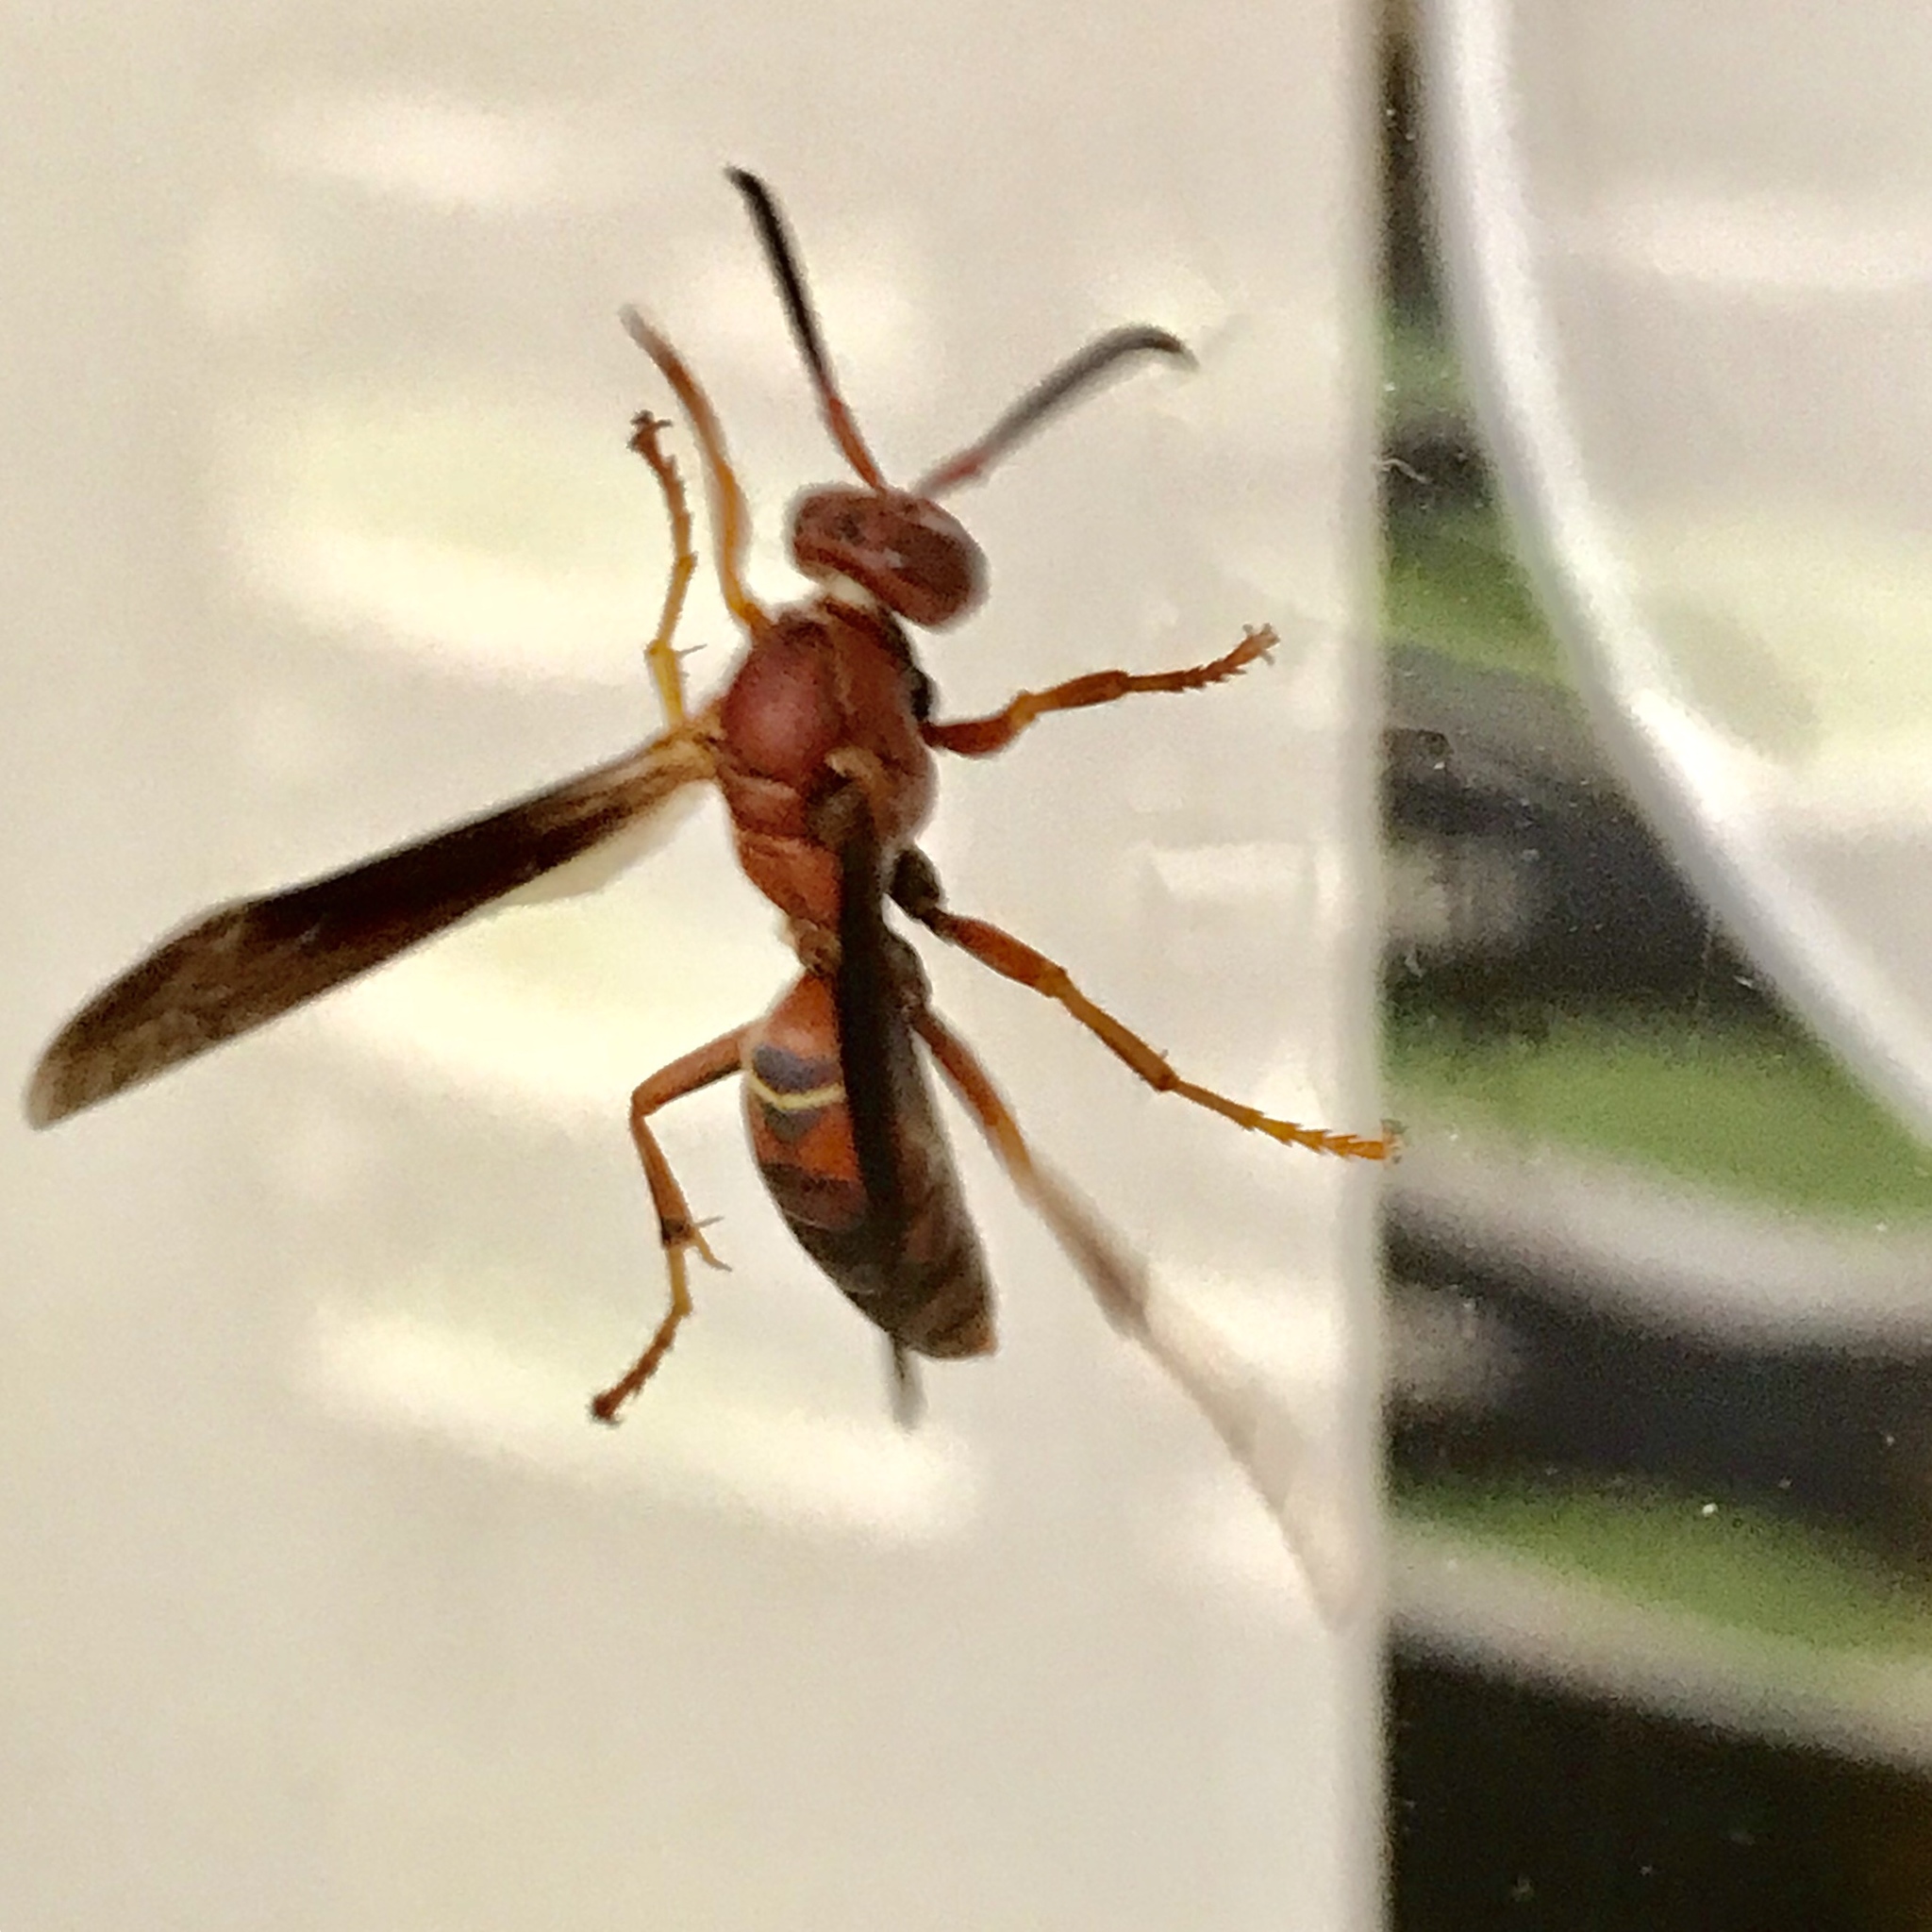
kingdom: Animalia
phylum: Arthropoda
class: Insecta
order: Hymenoptera
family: Eumenidae
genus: Polistes
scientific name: Polistes fuscatus
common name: Dark paper wasp
